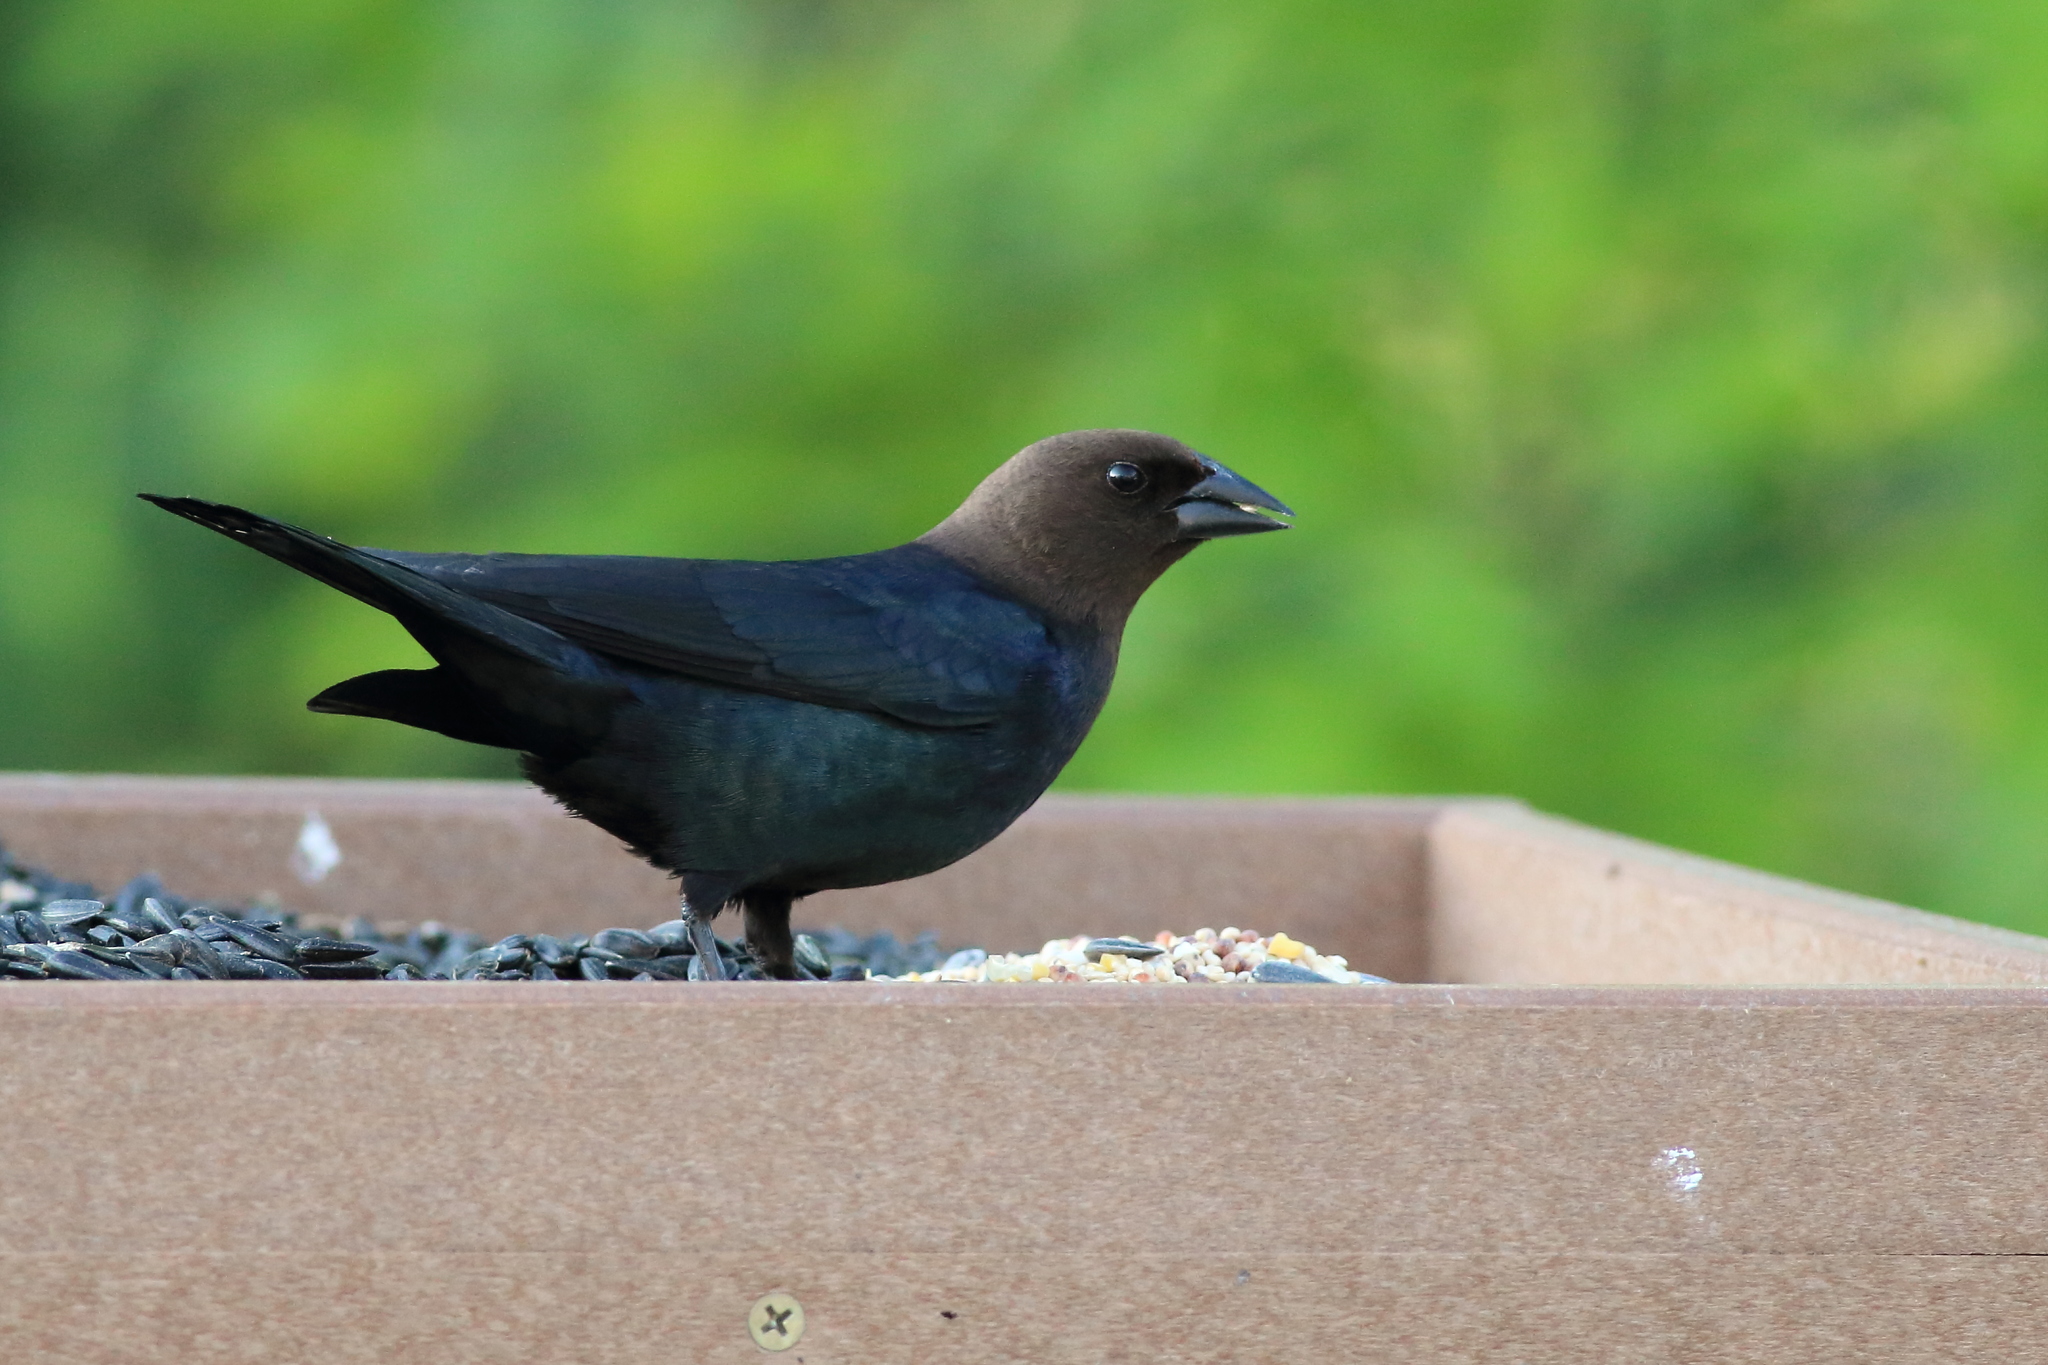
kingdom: Animalia
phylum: Chordata
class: Aves
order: Passeriformes
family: Icteridae
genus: Molothrus
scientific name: Molothrus ater
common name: Brown-headed cowbird
